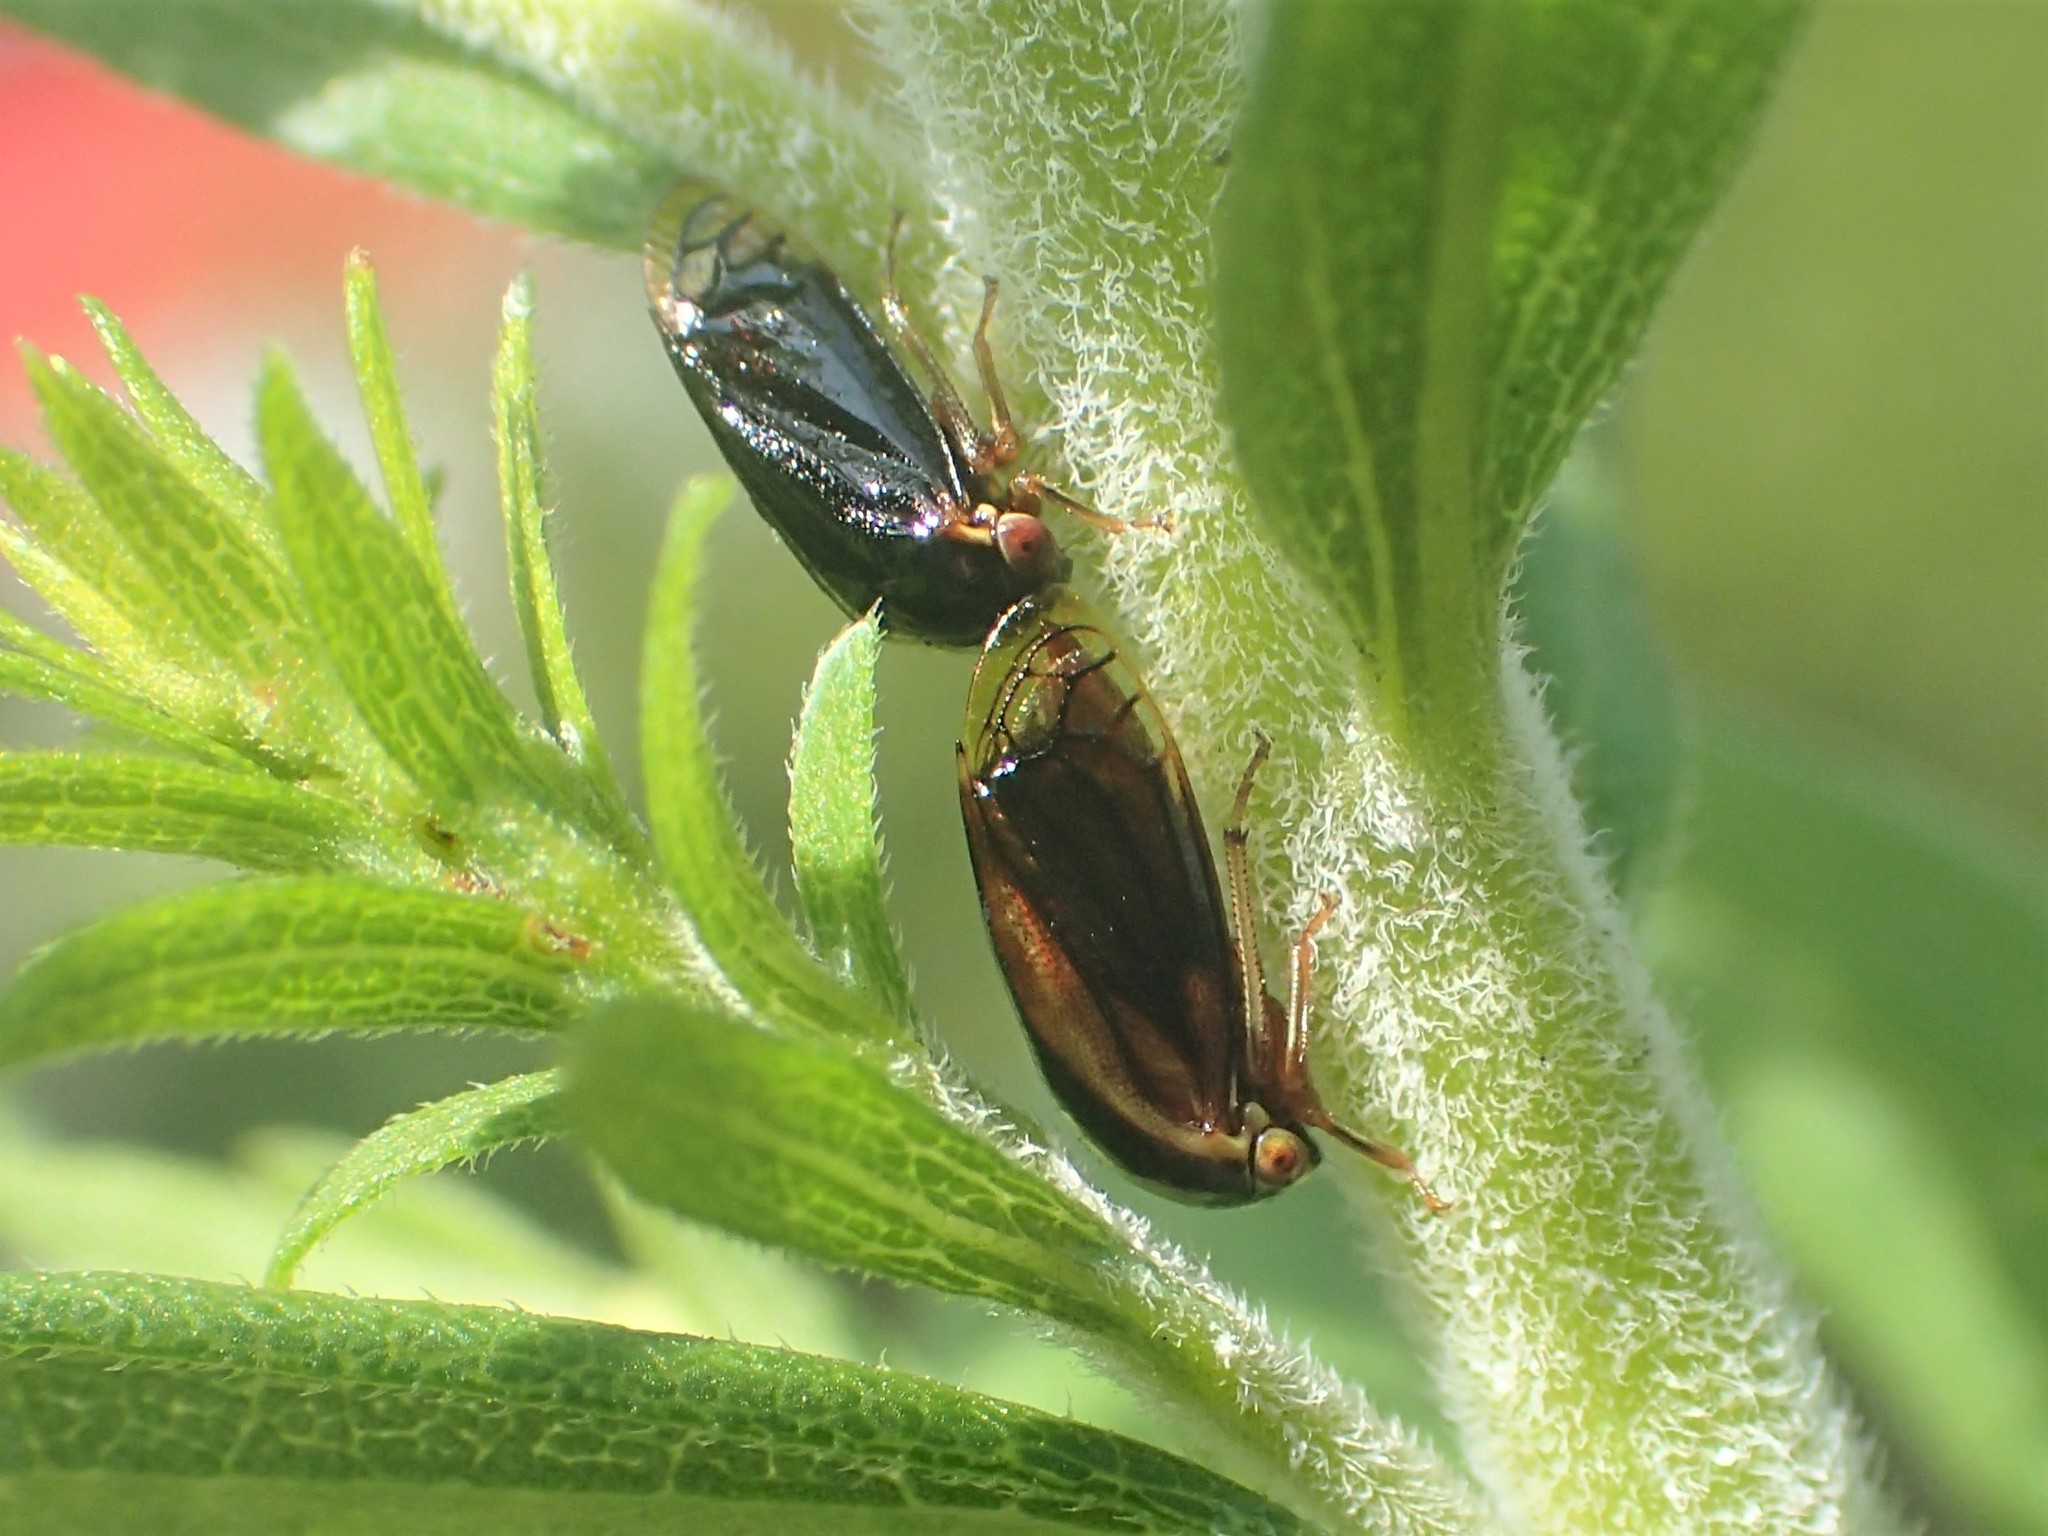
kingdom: Animalia
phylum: Arthropoda
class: Insecta
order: Hemiptera
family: Membracidae
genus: Acutalis
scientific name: Acutalis tartarea
